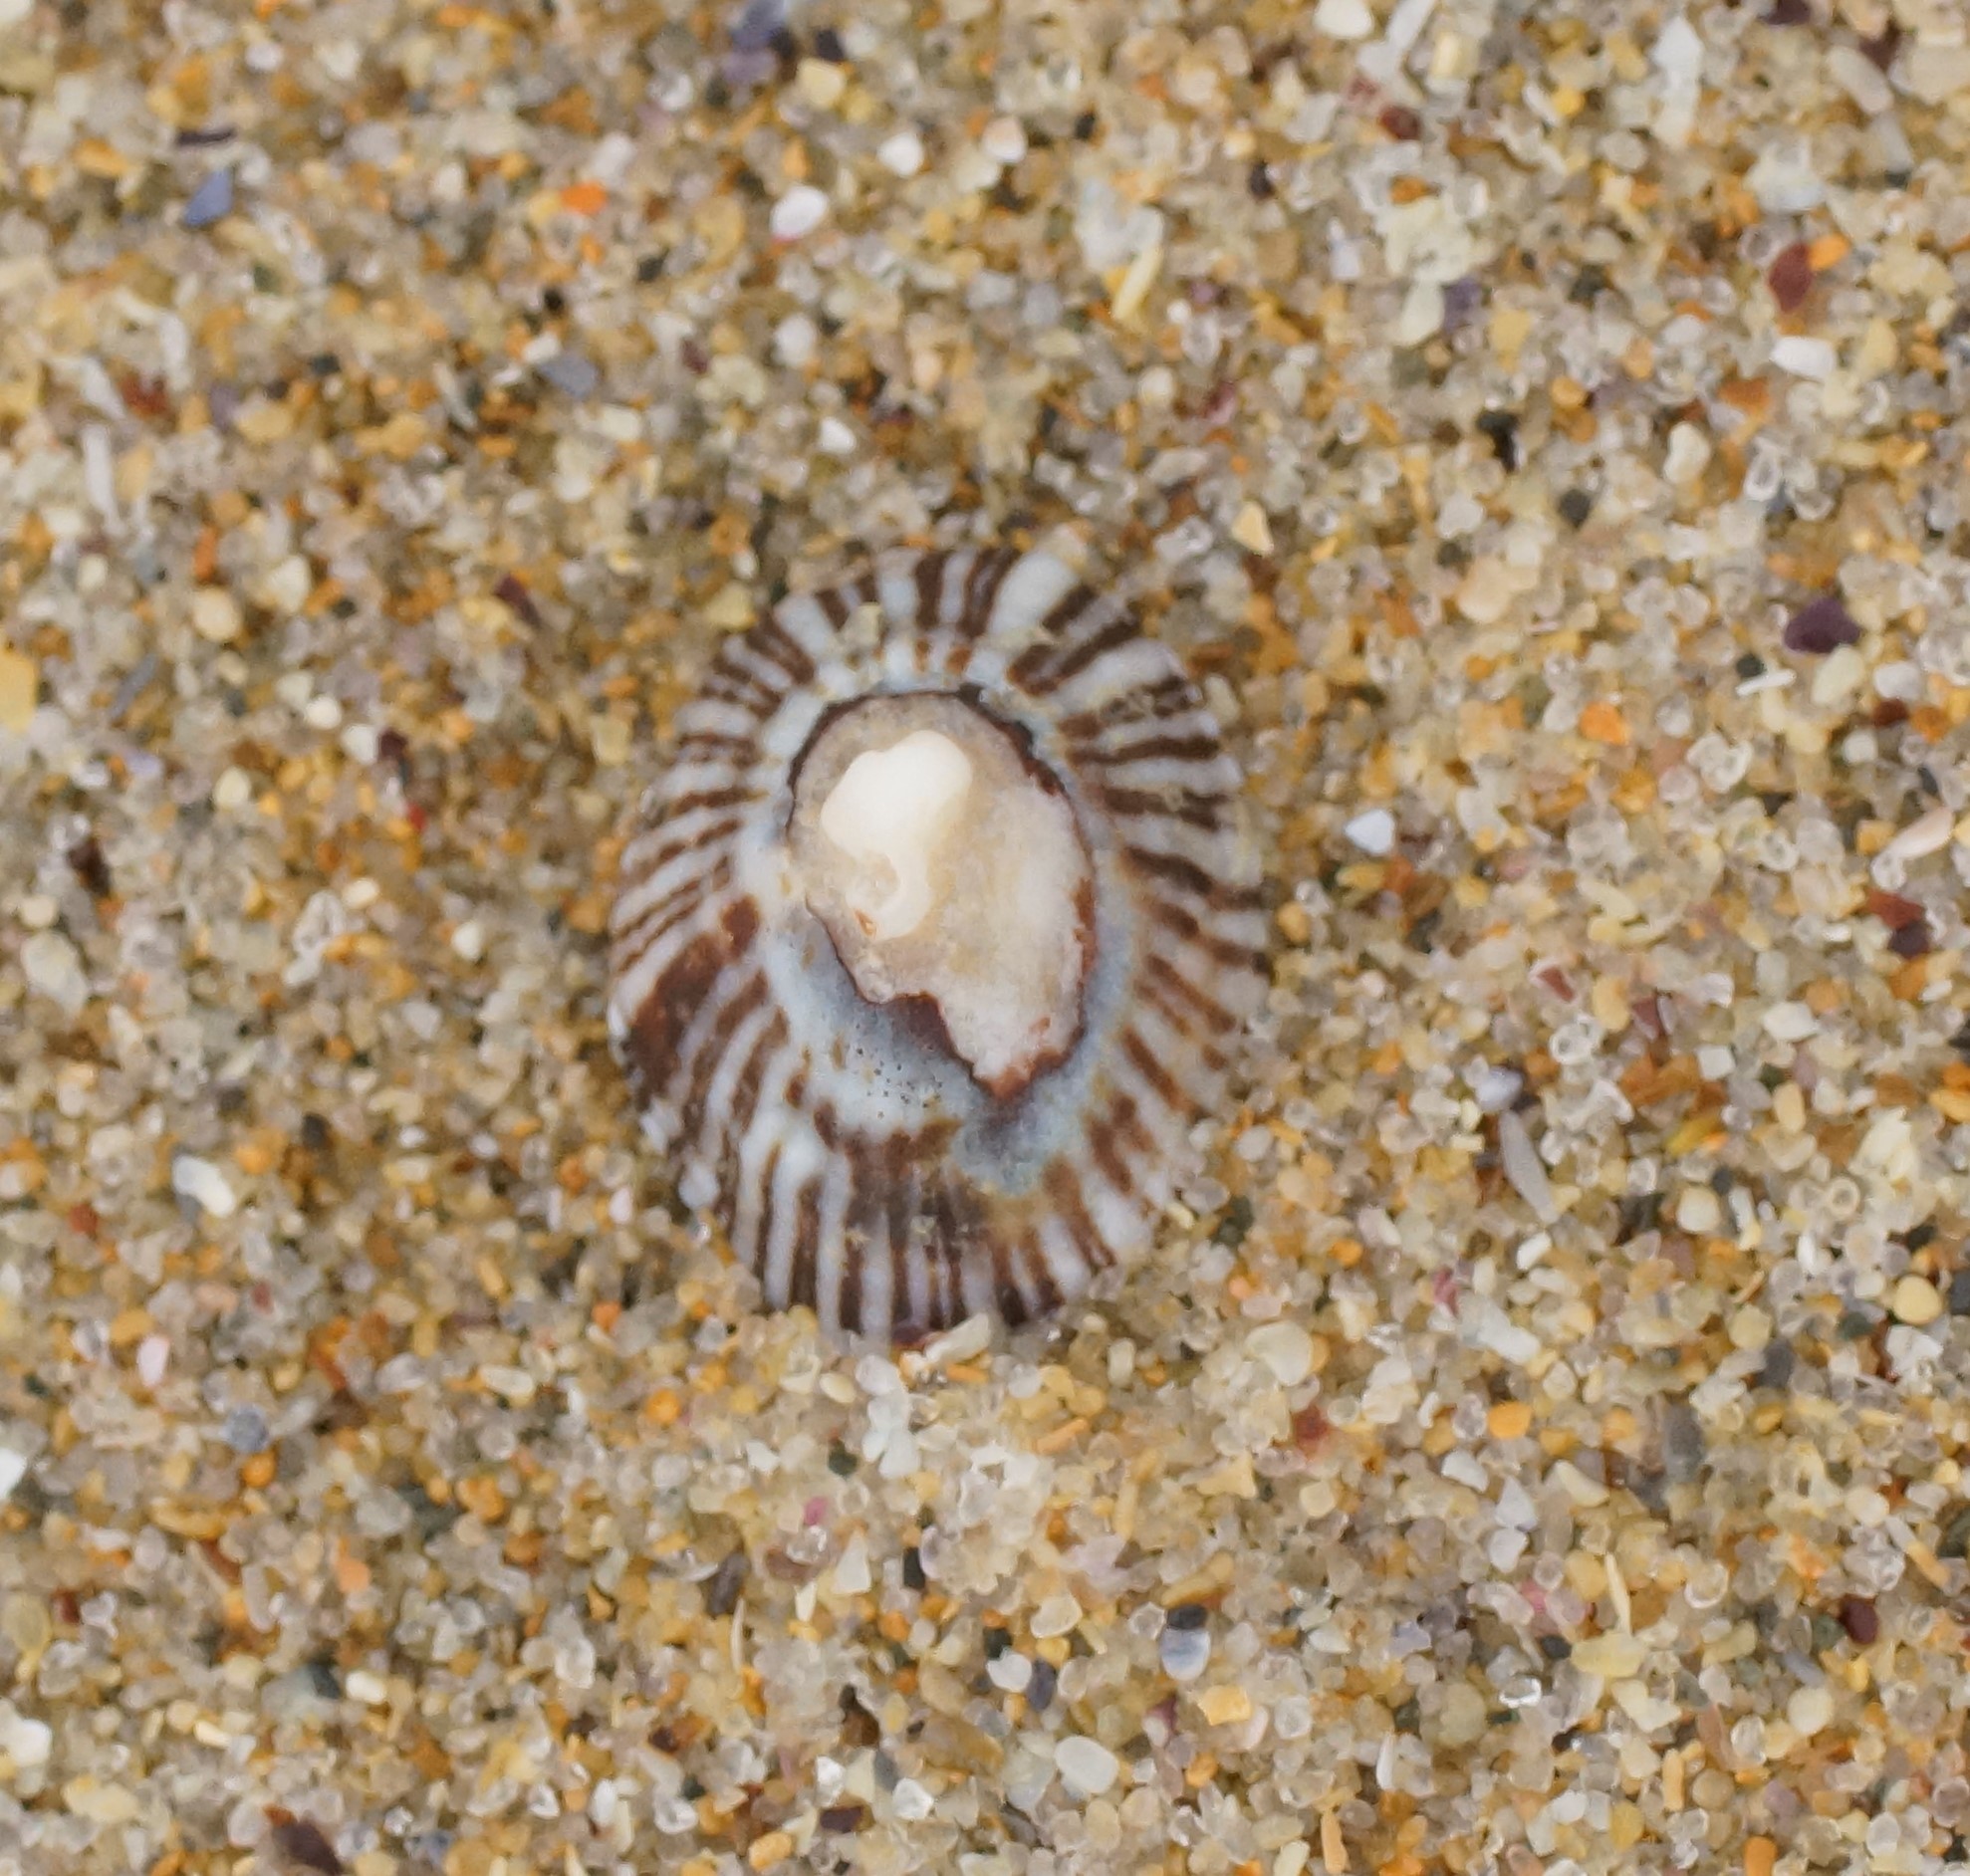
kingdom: Animalia
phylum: Mollusca
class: Gastropoda
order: Siphonariida
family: Siphonariidae
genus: Siphonaria
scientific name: Siphonaria funiculata
